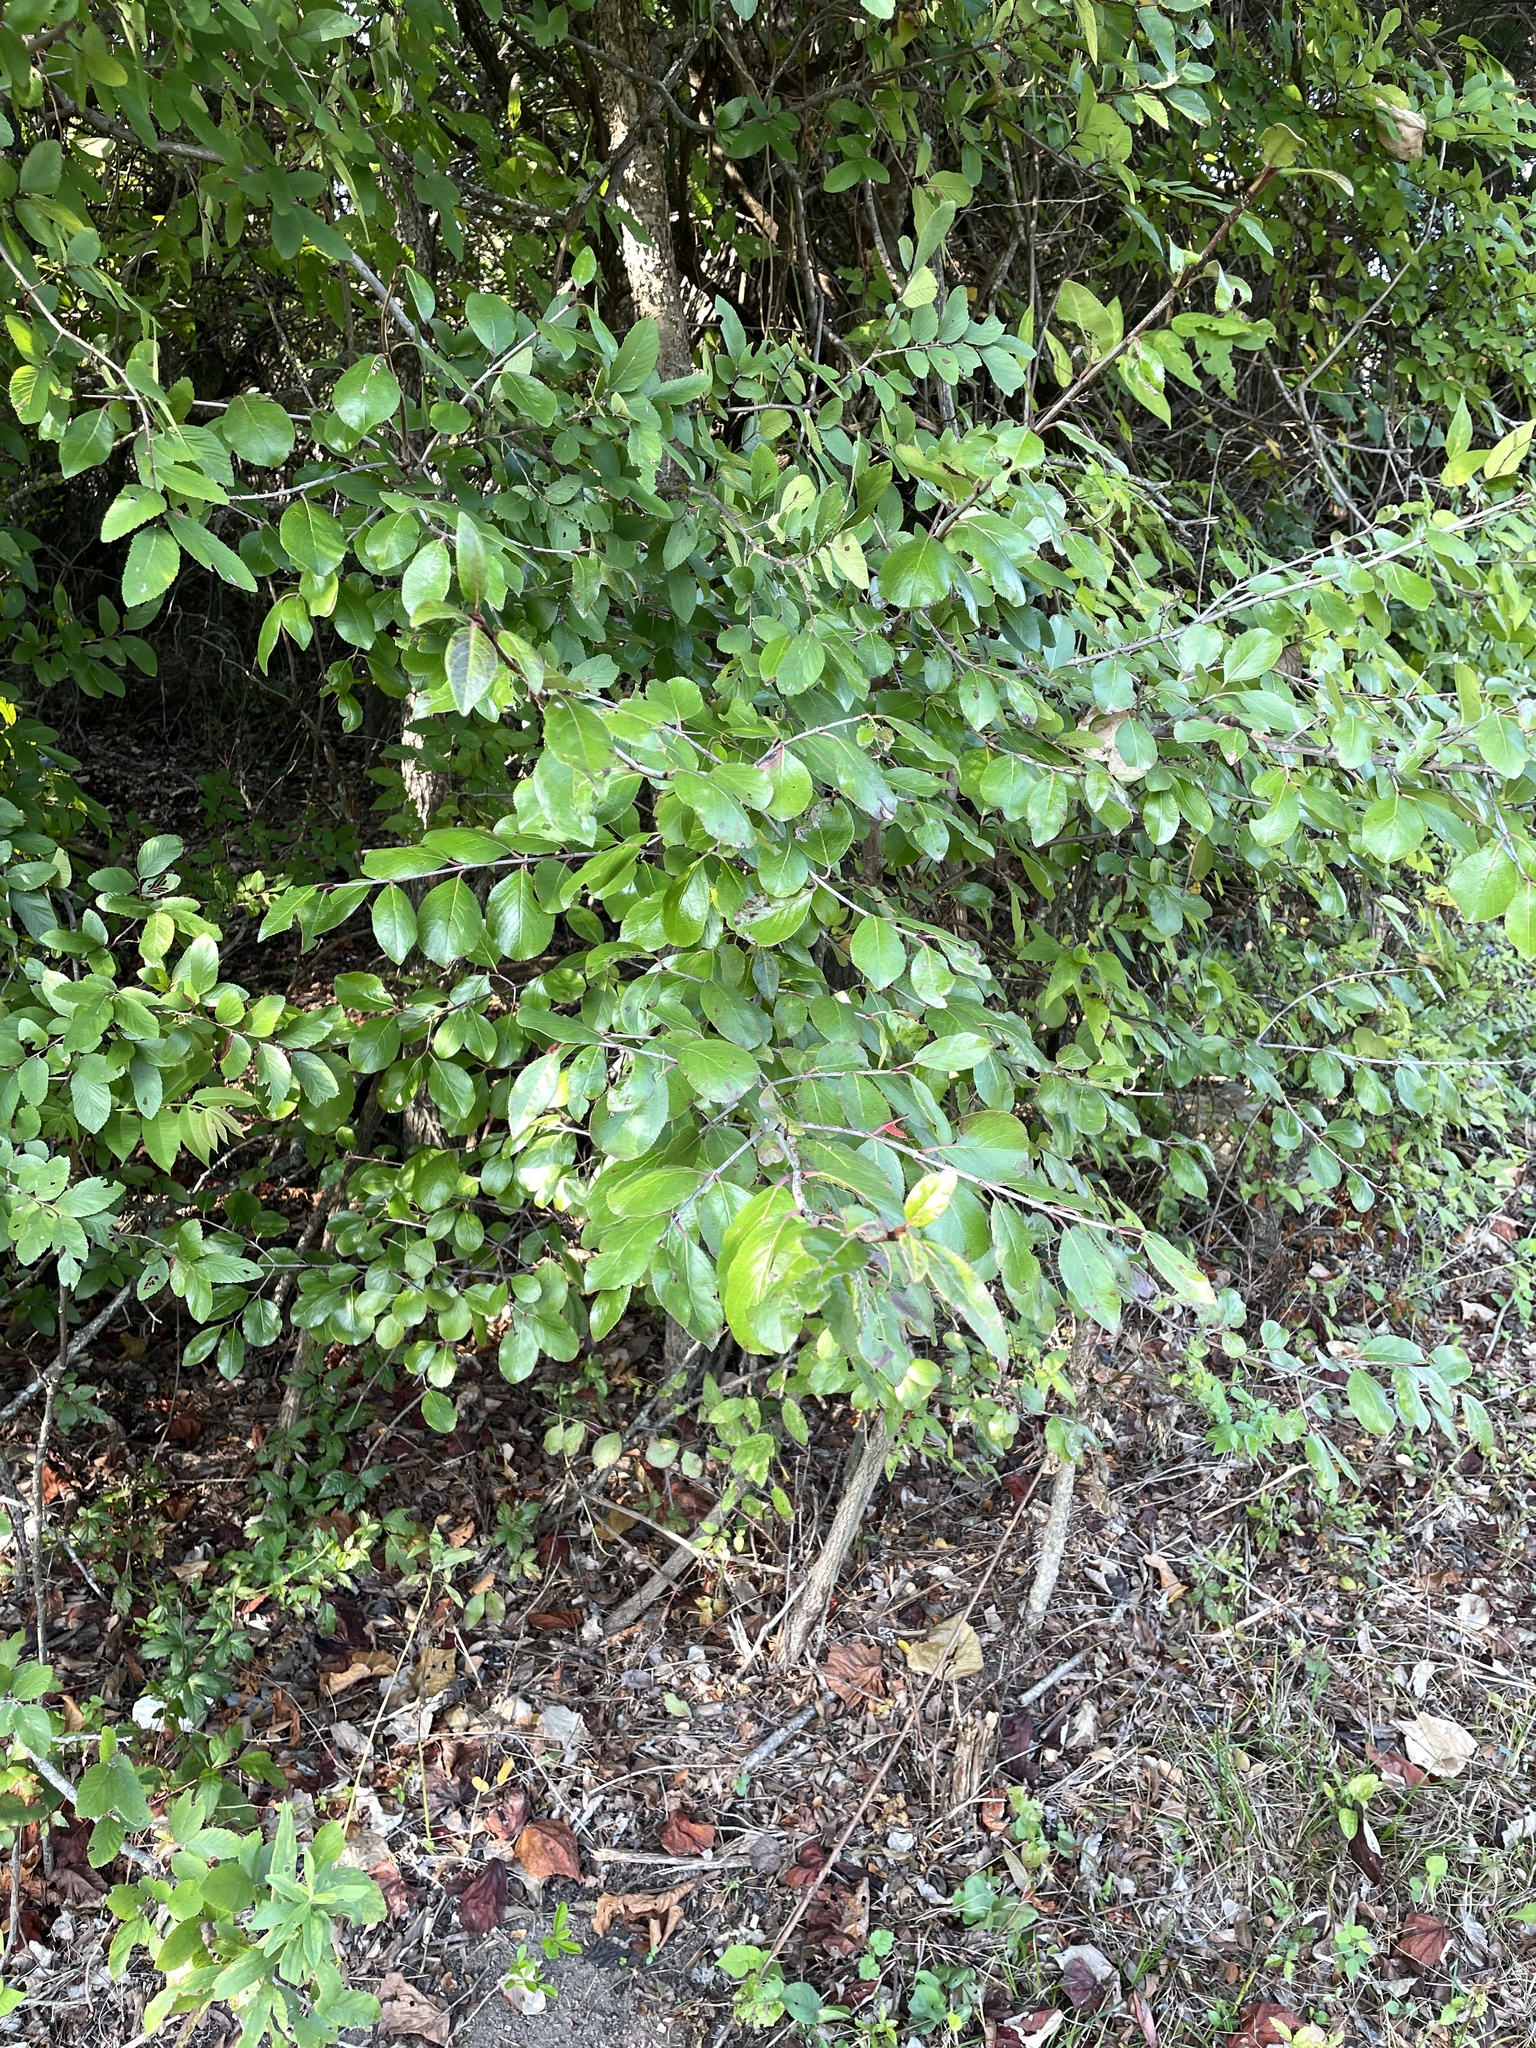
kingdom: Plantae
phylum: Tracheophyta
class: Magnoliopsida
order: Dipsacales
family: Viburnaceae
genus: Viburnum
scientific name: Viburnum rufidulum
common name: Blue haw
